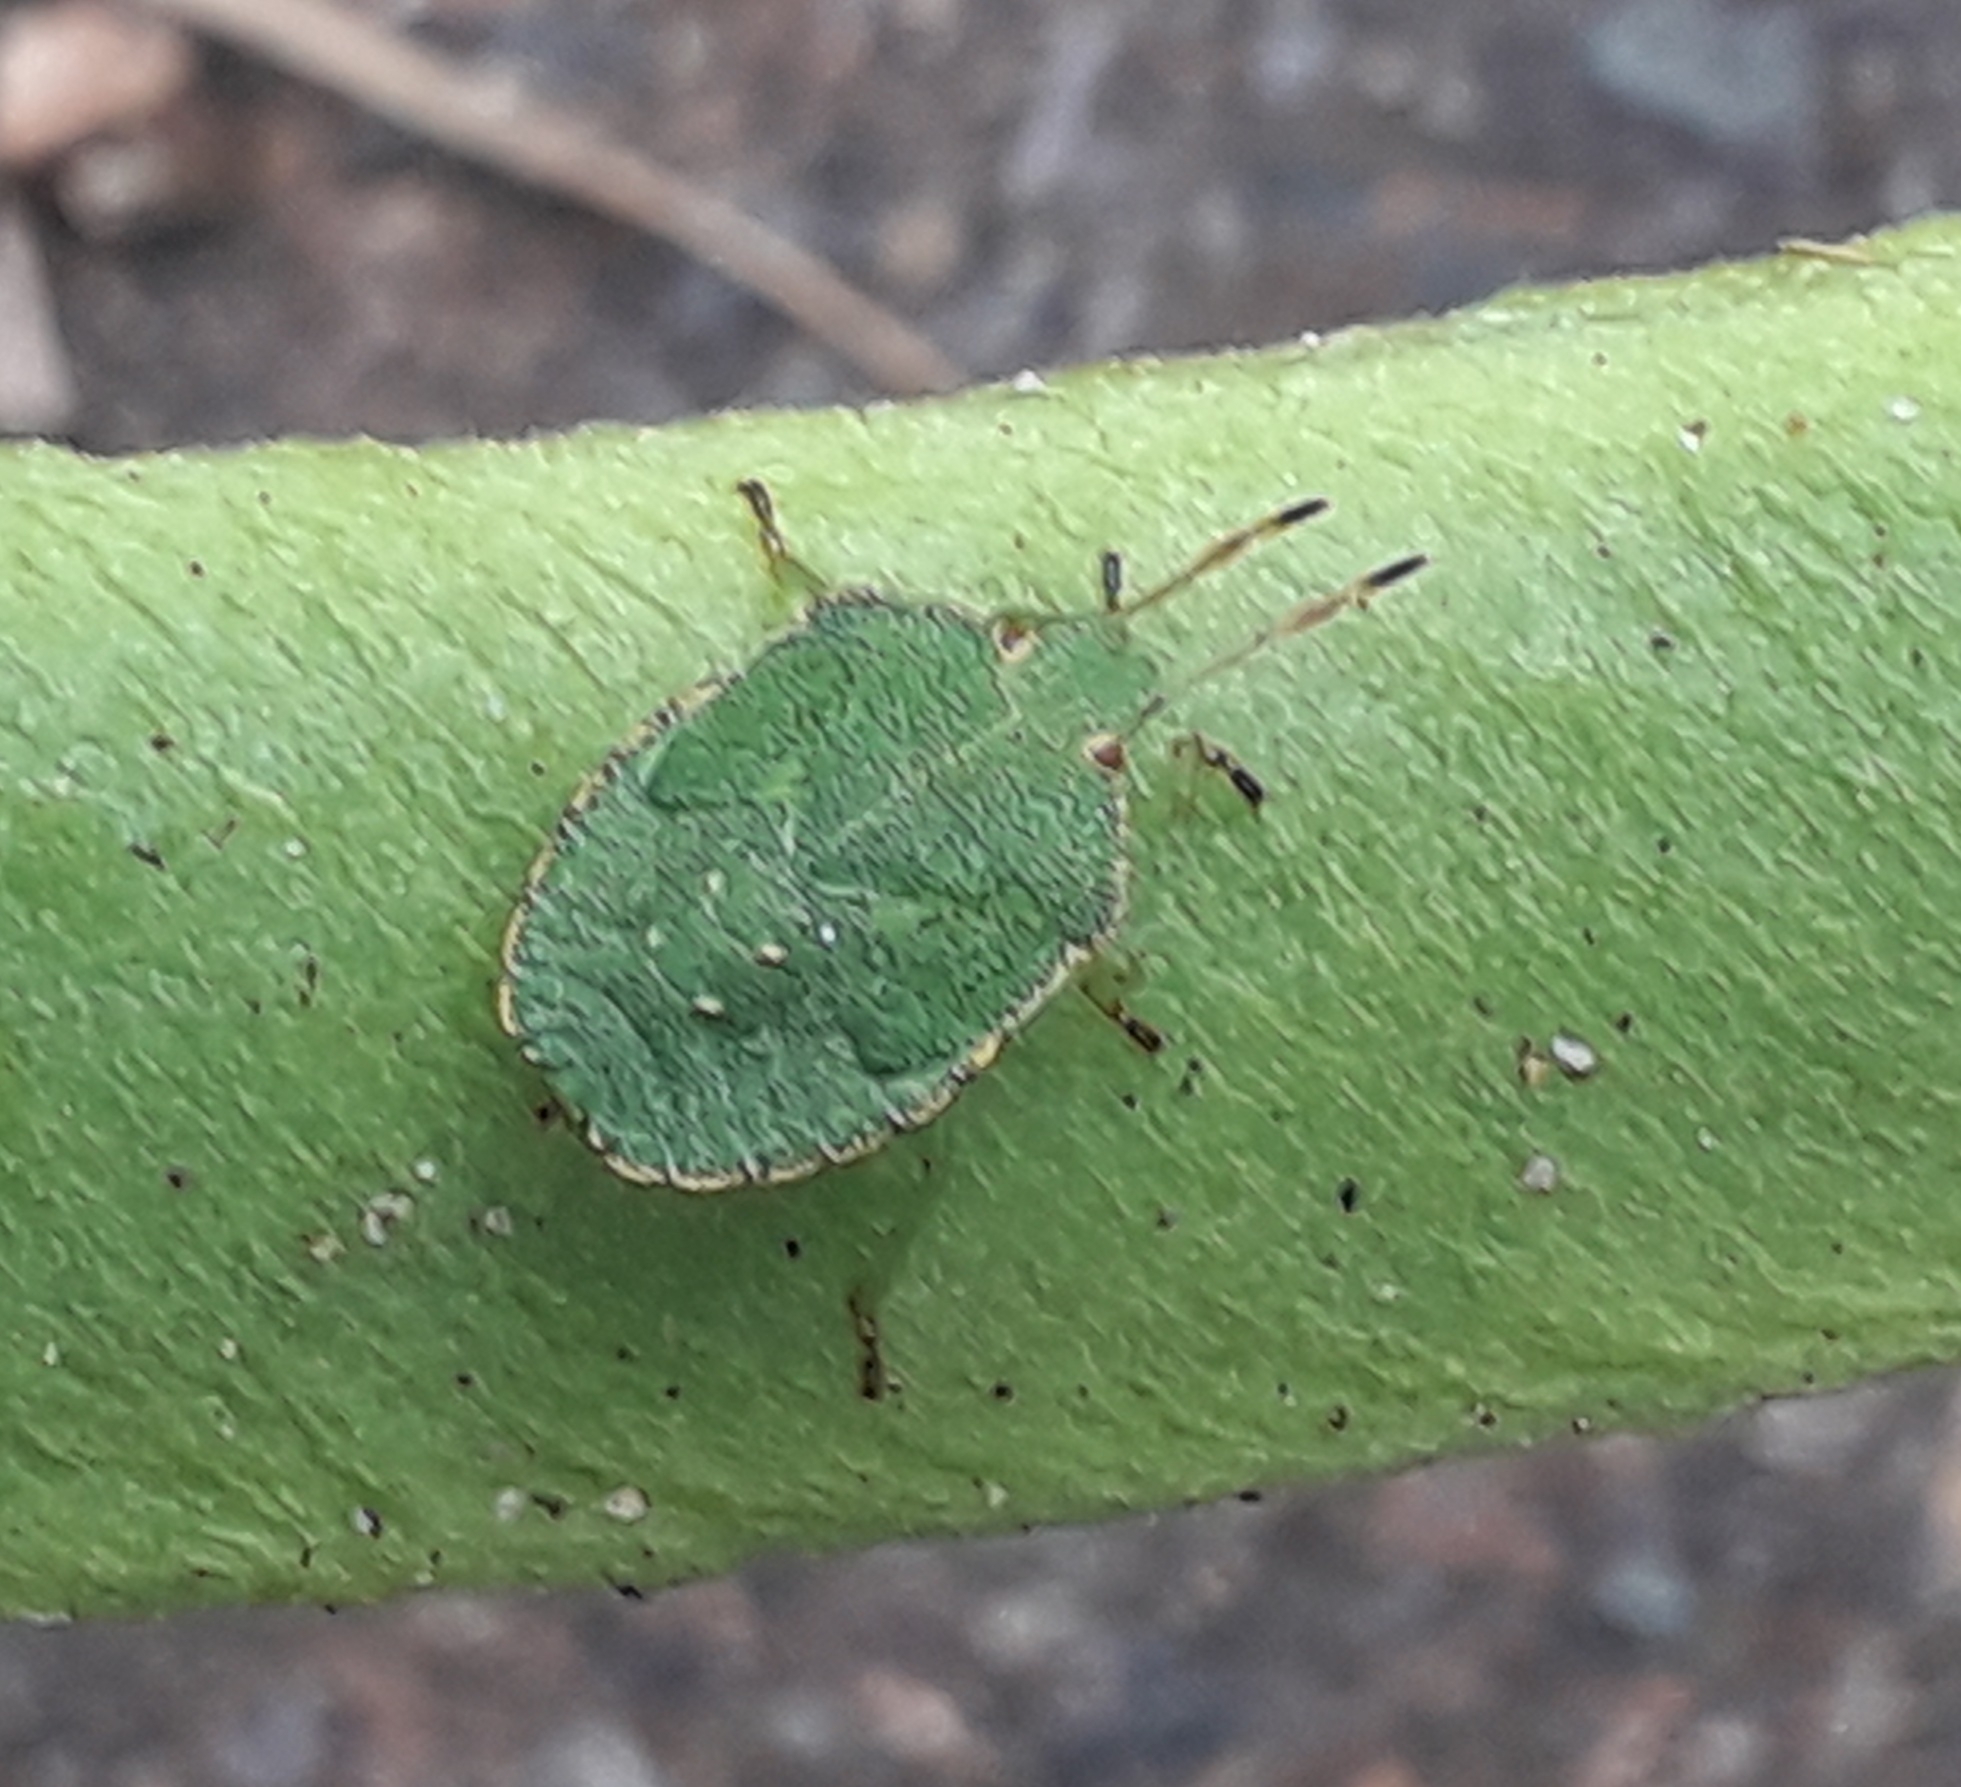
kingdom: Animalia
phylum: Arthropoda
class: Insecta
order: Hemiptera
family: Pentatomidae
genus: Palomena
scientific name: Palomena prasina
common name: Green shieldbug
